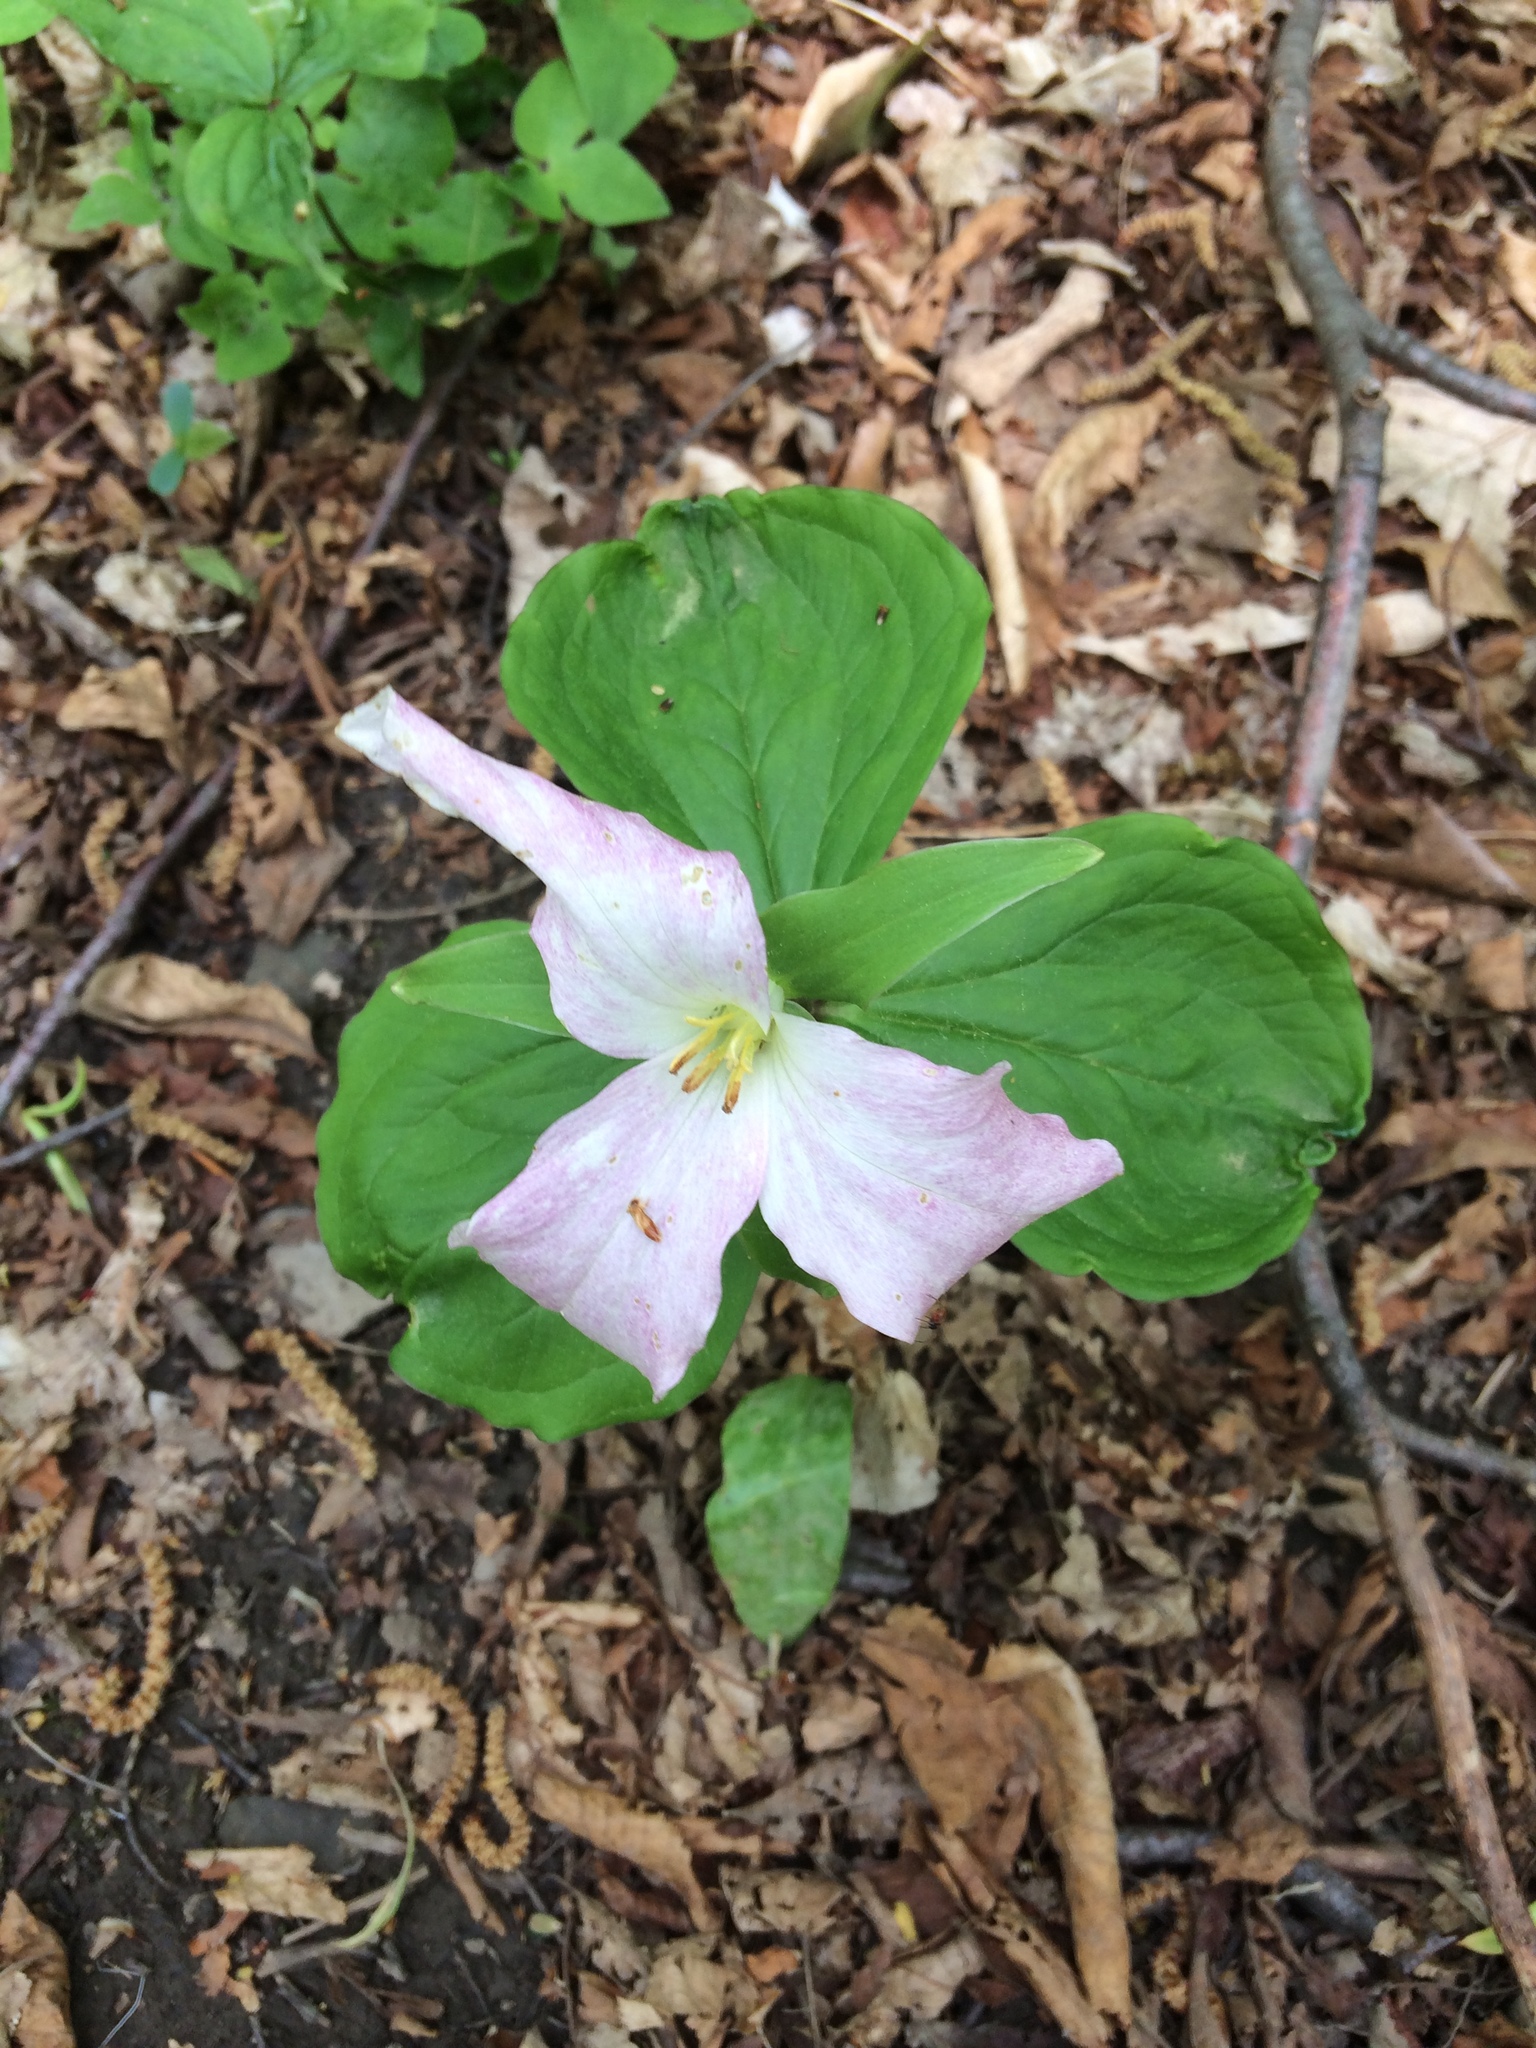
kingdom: Plantae
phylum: Tracheophyta
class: Liliopsida
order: Liliales
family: Melanthiaceae
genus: Trillium
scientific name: Trillium grandiflorum
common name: Great white trillium
